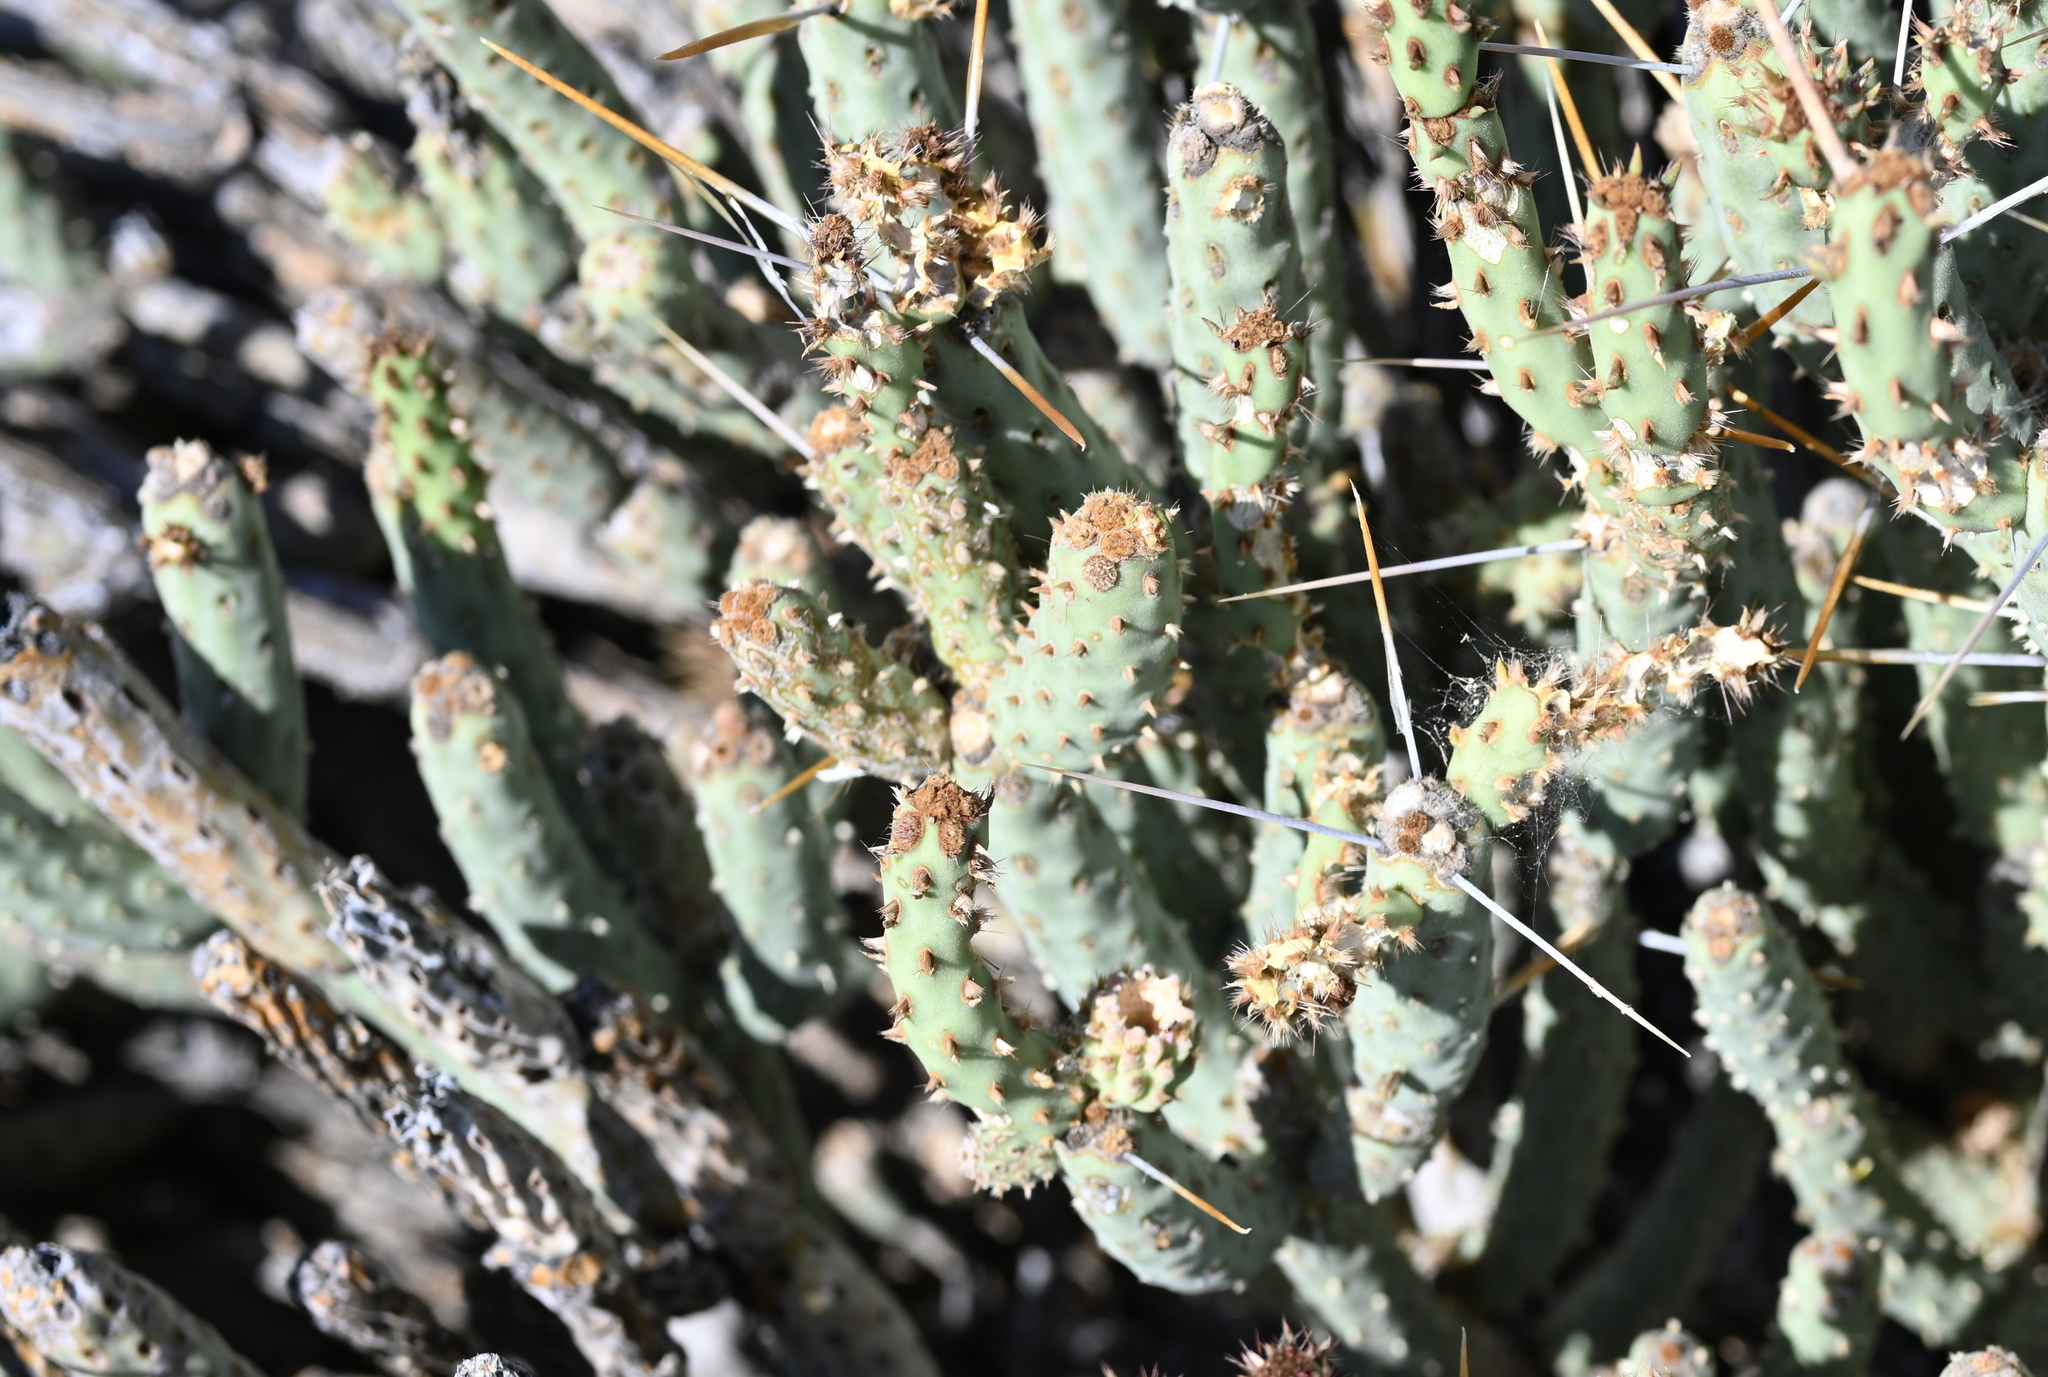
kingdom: Plantae
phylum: Tracheophyta
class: Magnoliopsida
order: Caryophyllales
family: Cactaceae
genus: Cylindropuntia
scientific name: Cylindropuntia tesajo
